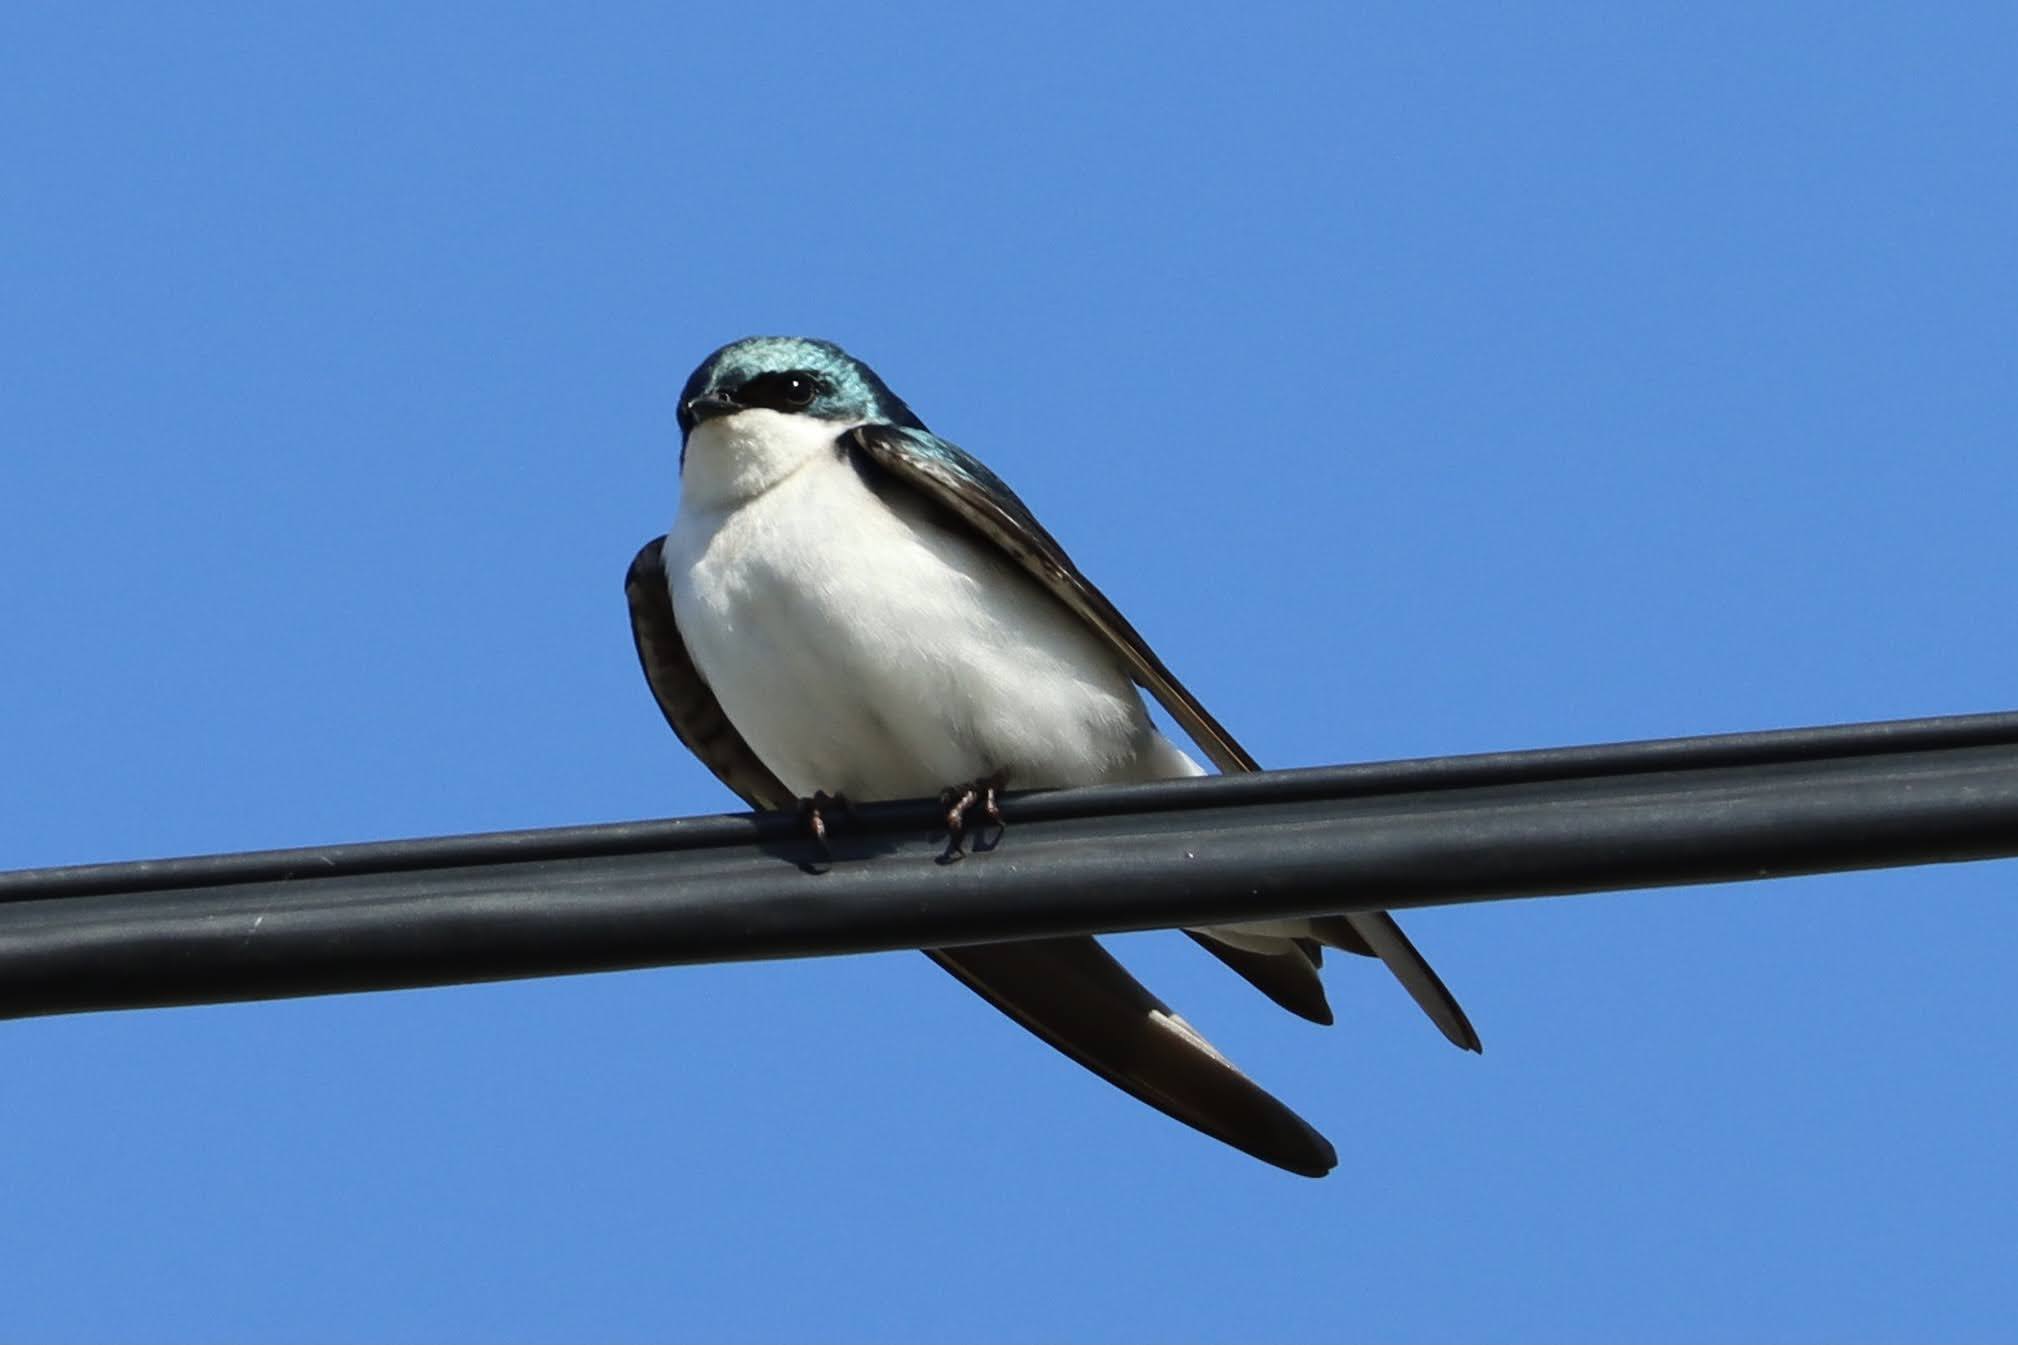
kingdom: Animalia
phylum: Chordata
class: Aves
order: Passeriformes
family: Hirundinidae
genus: Tachycineta
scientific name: Tachycineta bicolor
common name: Tree swallow
